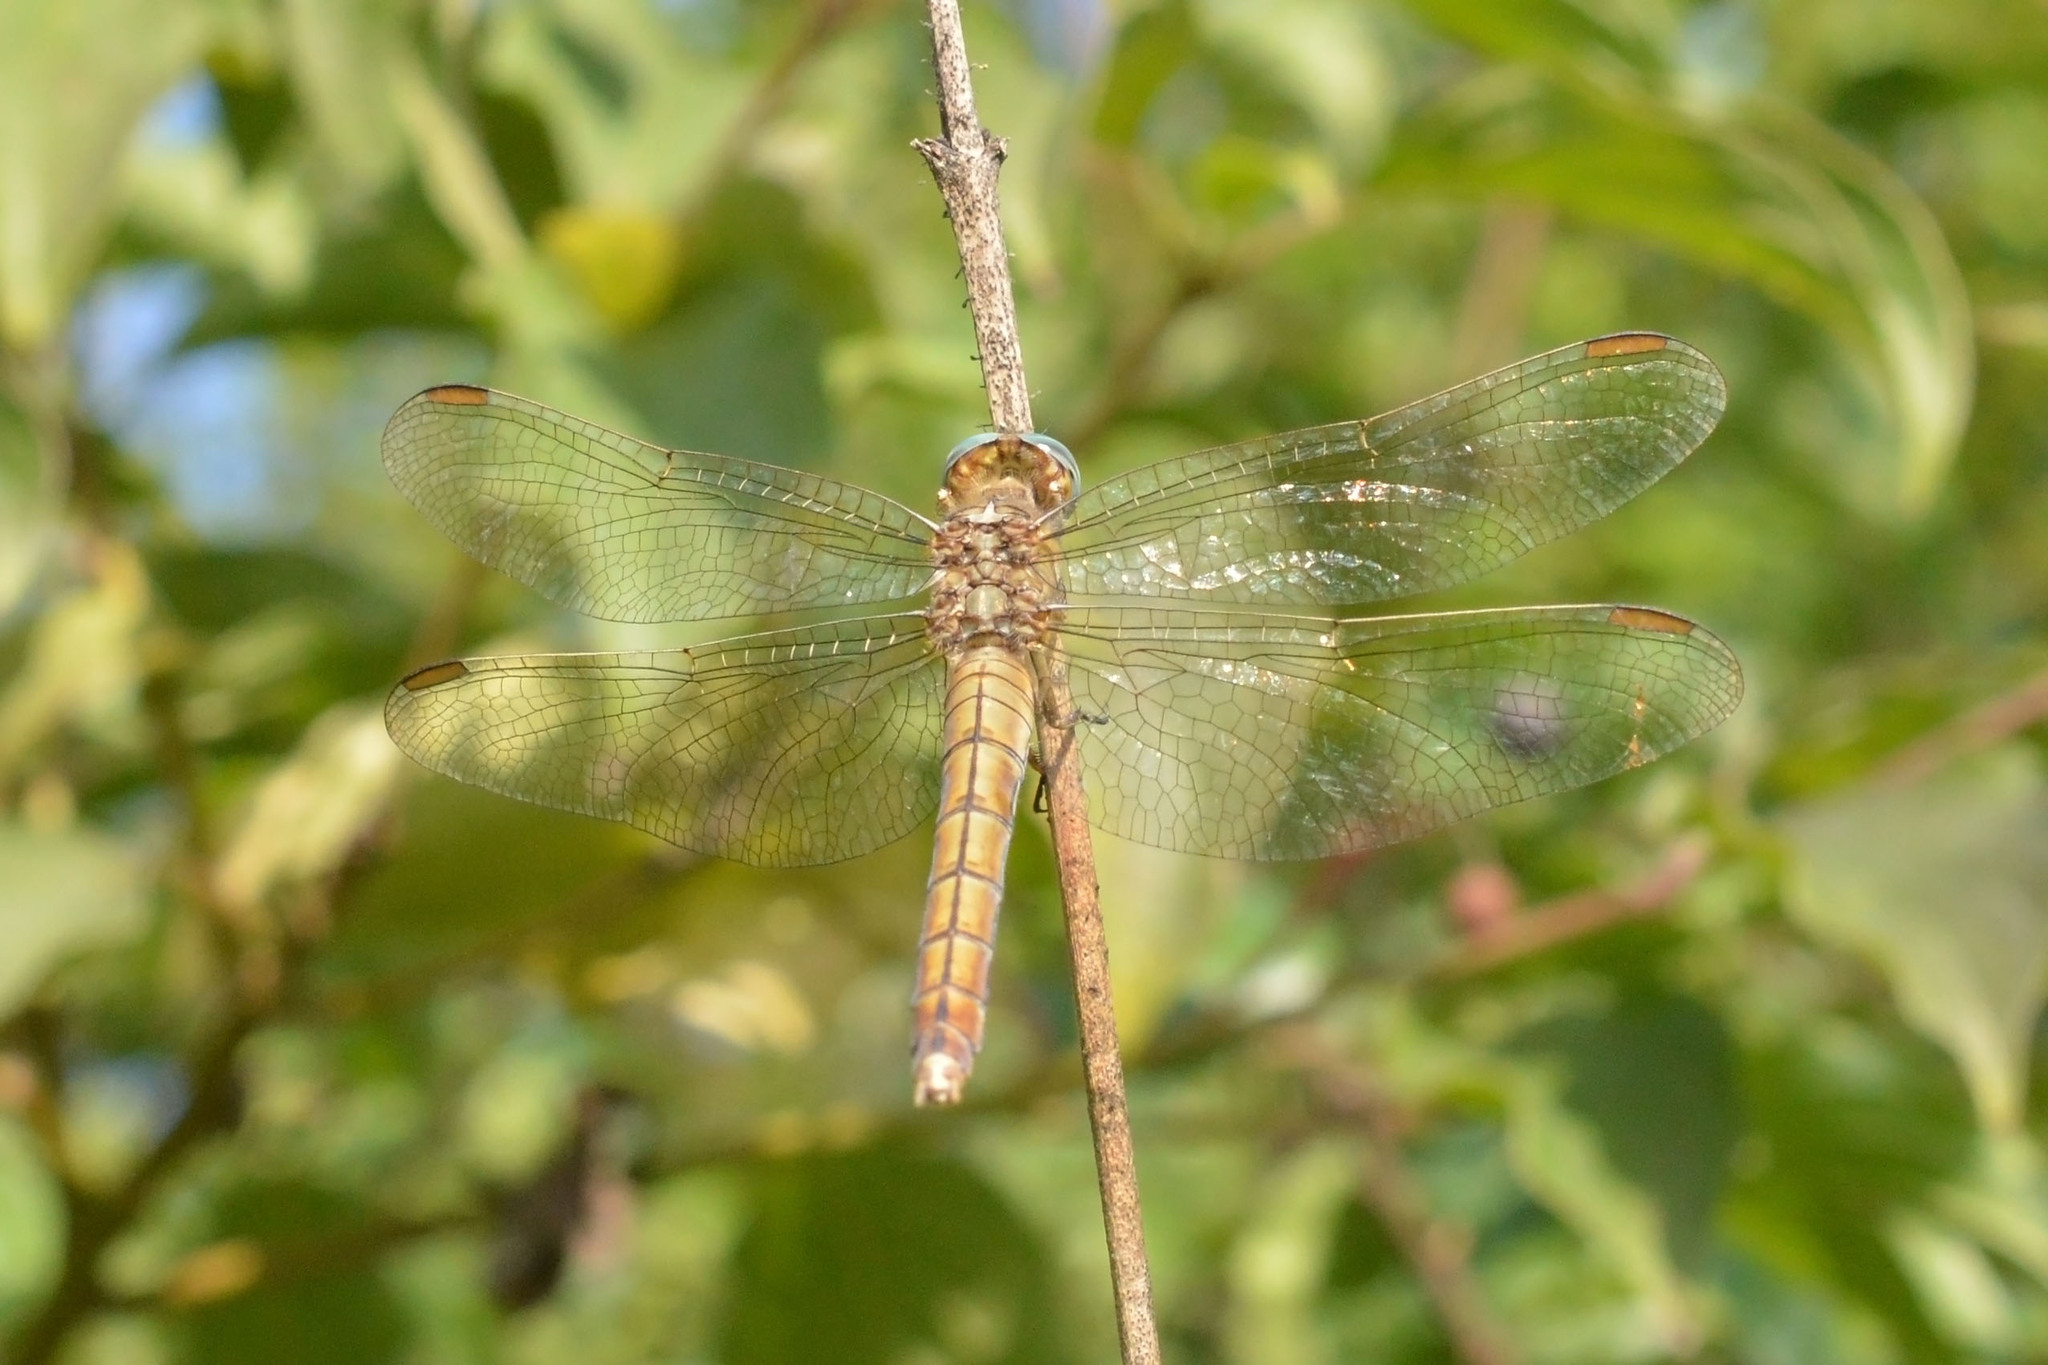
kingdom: Animalia
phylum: Arthropoda
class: Insecta
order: Odonata
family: Libellulidae
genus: Orthetrum
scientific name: Orthetrum coerulescens
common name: Keeled skimmer
